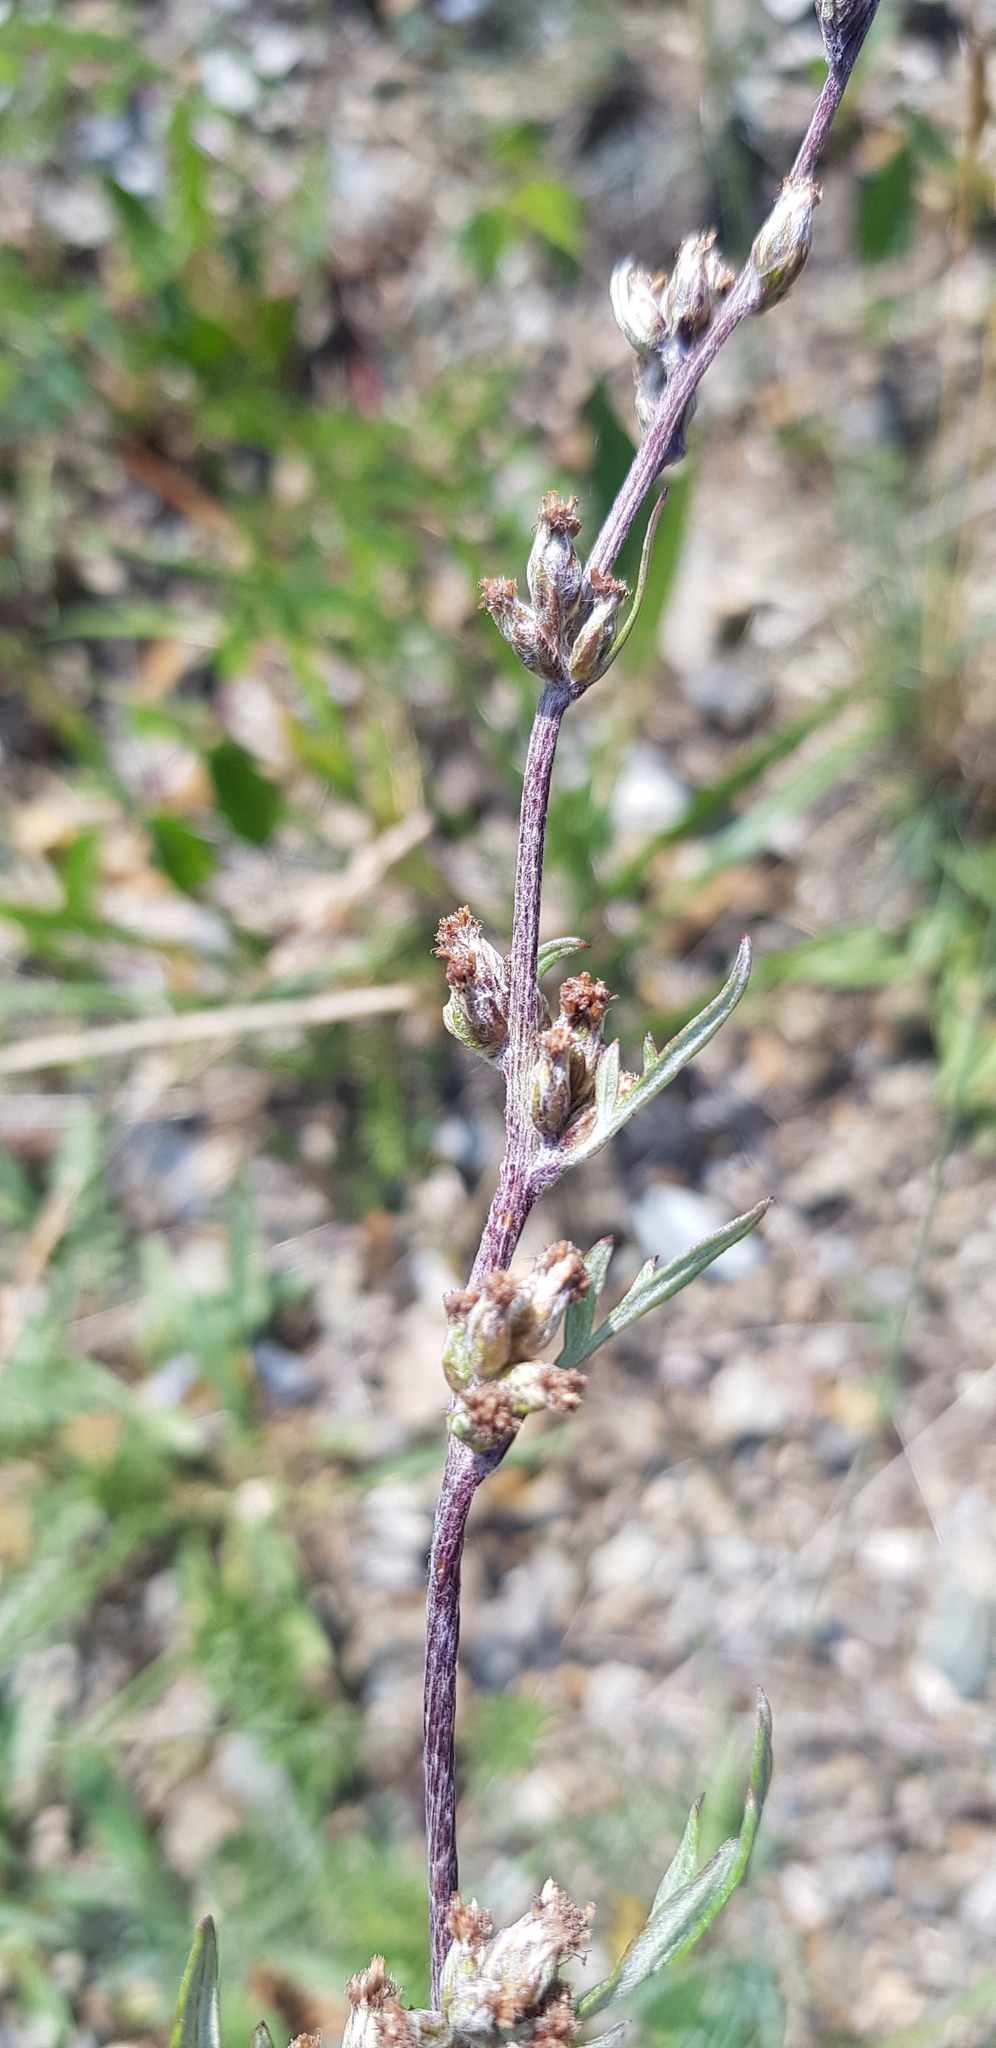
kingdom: Plantae
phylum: Tracheophyta
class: Magnoliopsida
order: Asterales
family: Asteraceae
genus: Artemisia
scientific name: Artemisia vulgaris
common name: Mugwort
